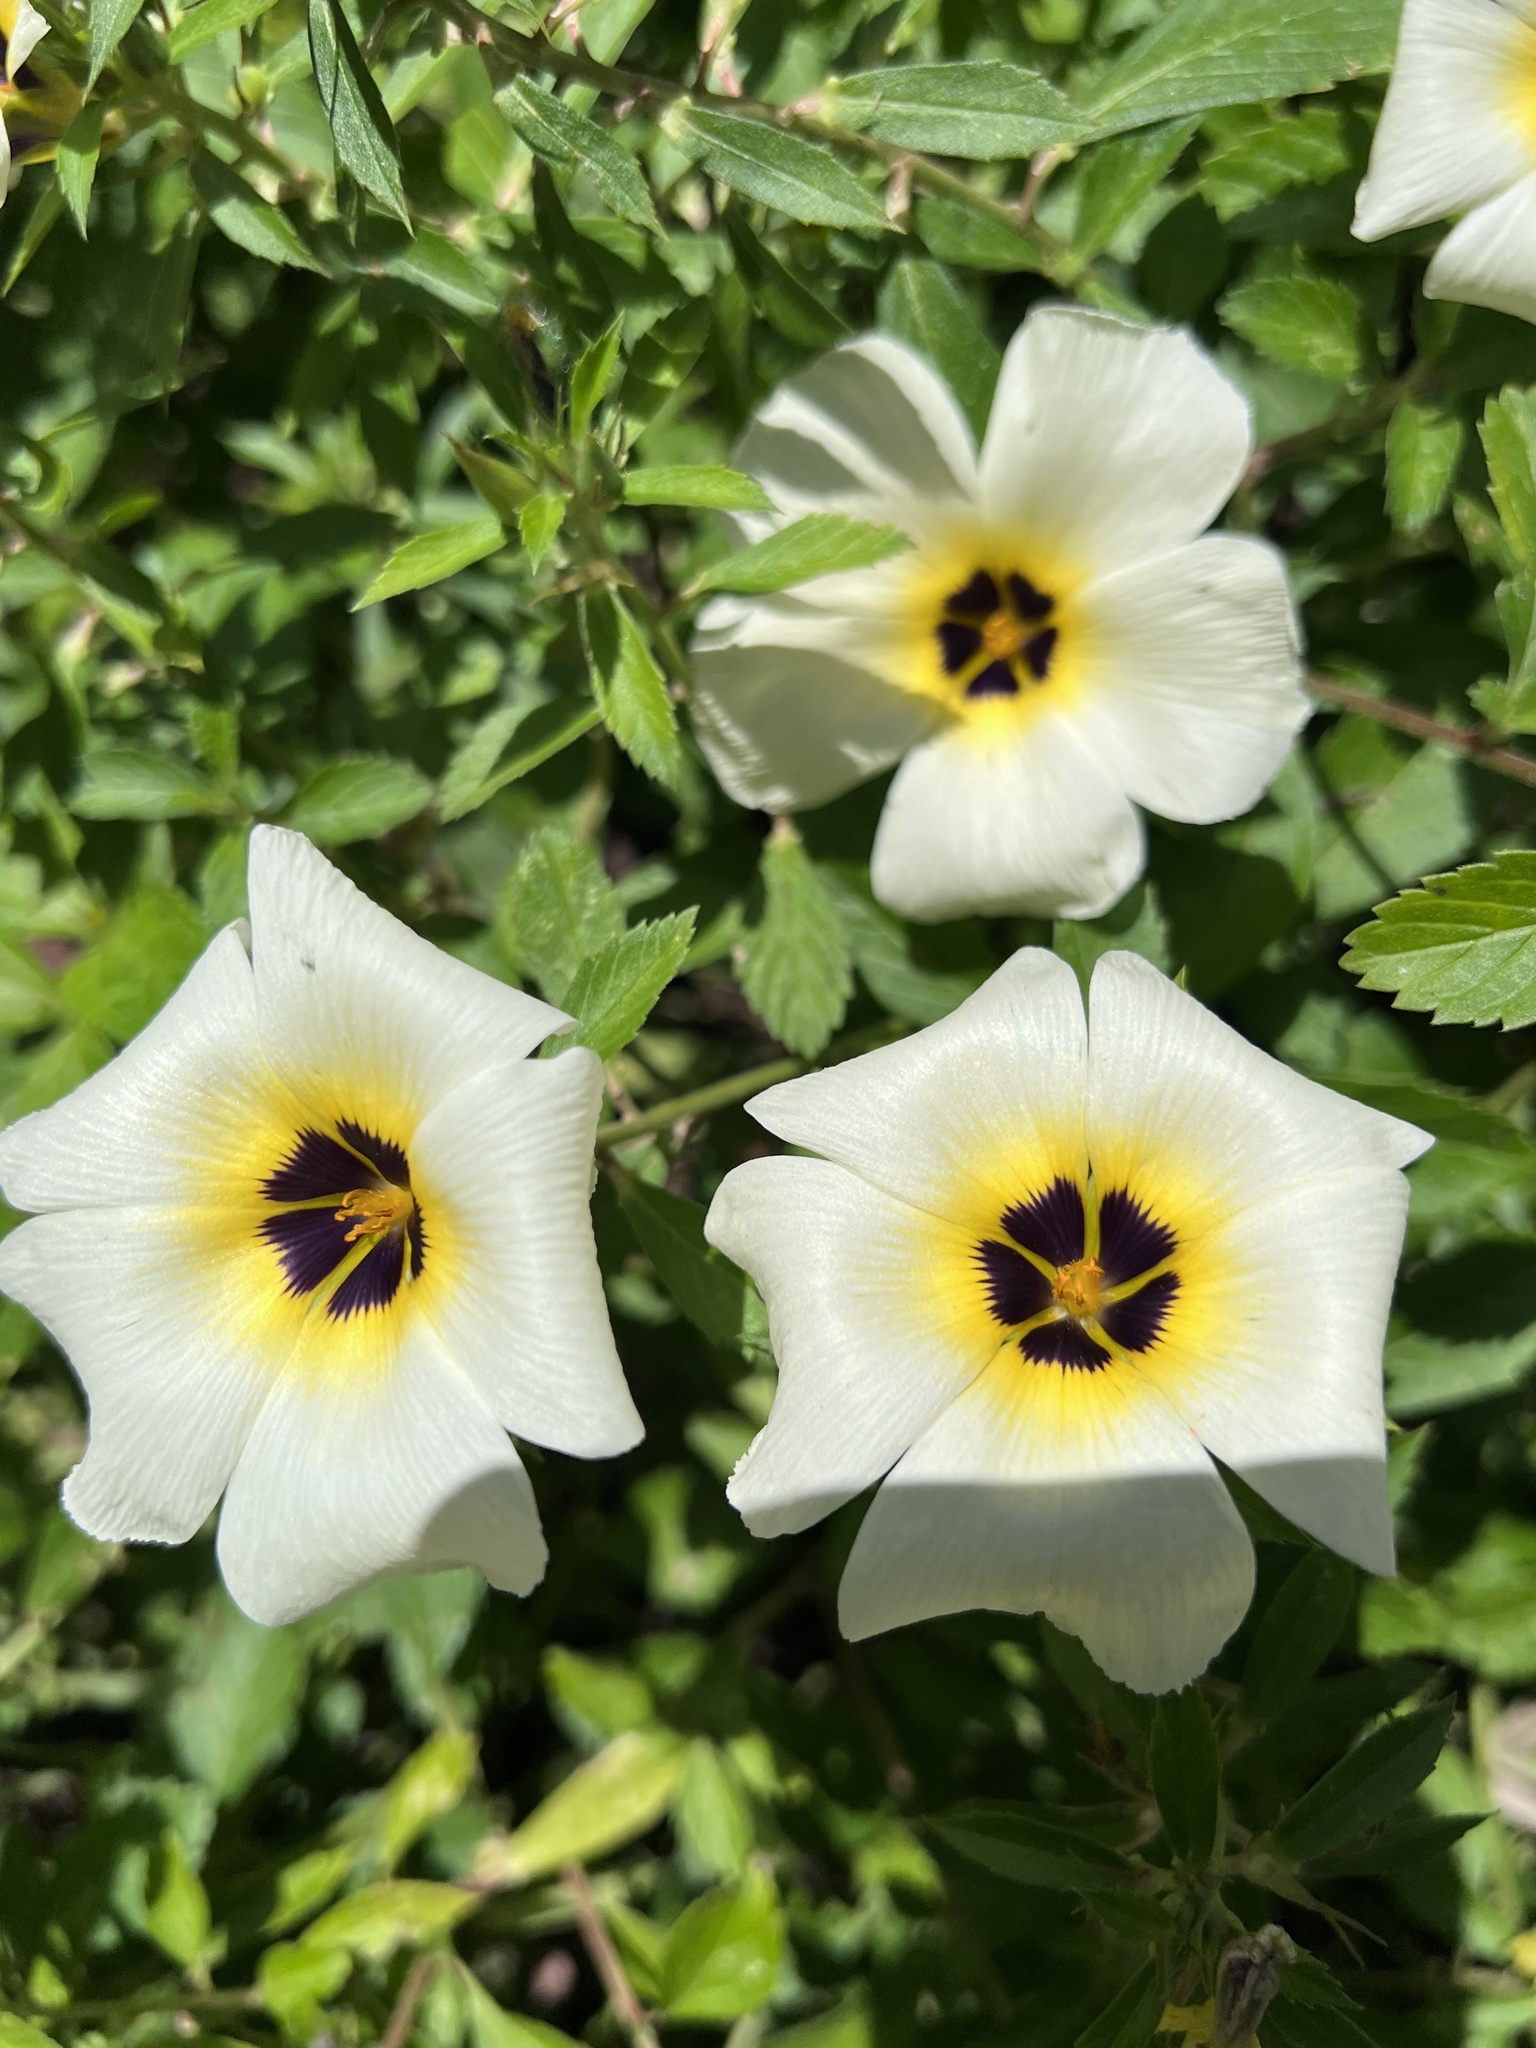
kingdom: Plantae
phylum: Tracheophyta
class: Magnoliopsida
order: Malpighiales
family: Turneraceae
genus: Turnera
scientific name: Turnera subulata
